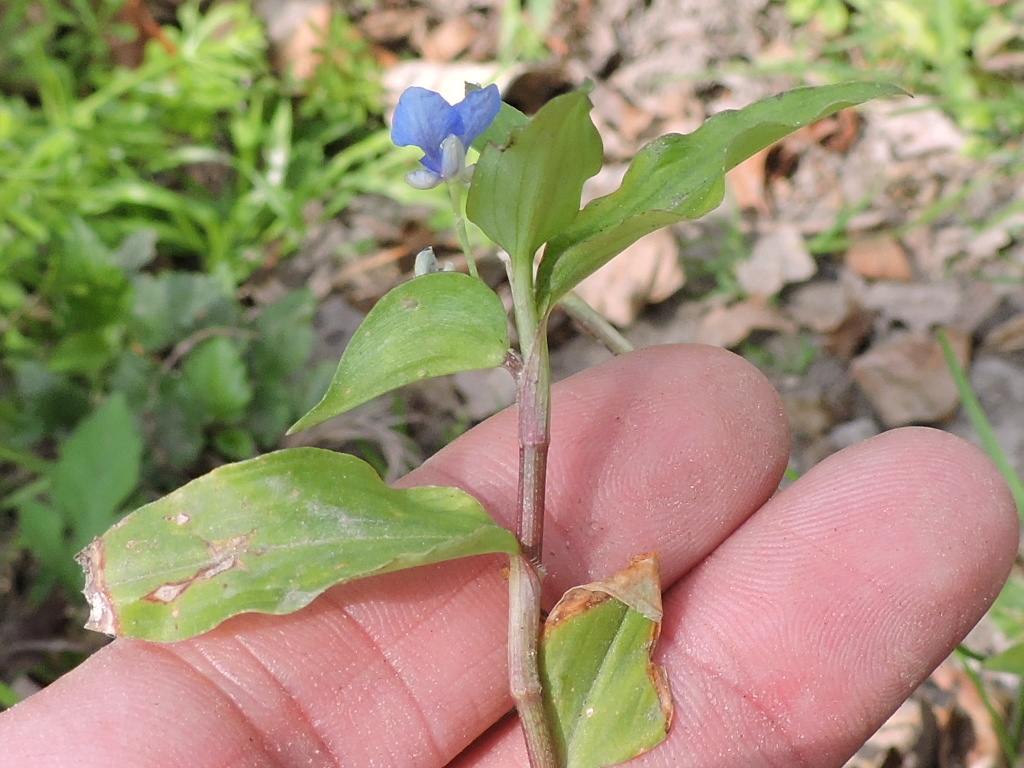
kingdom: Plantae
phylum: Tracheophyta
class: Liliopsida
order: Commelinales
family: Commelinaceae
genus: Commelina
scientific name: Commelina diffusa
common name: Climbing dayflower
